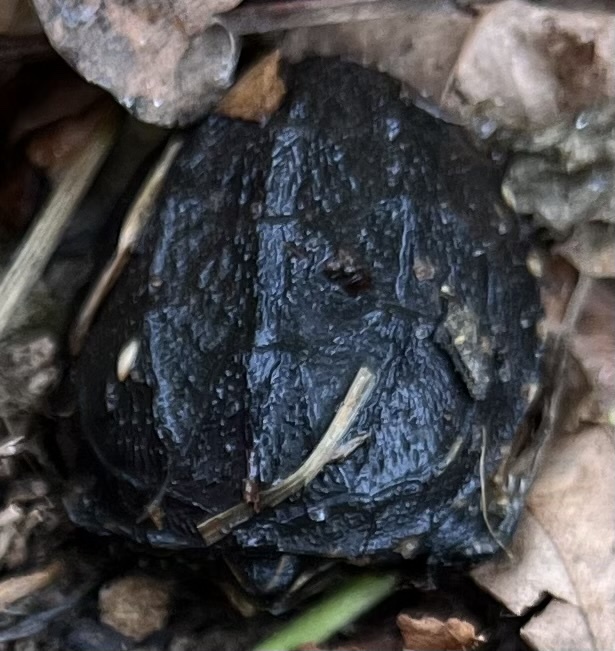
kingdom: Animalia
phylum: Chordata
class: Testudines
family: Kinosternidae
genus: Sternotherus
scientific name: Sternotherus odoratus
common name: Common musk turtle
